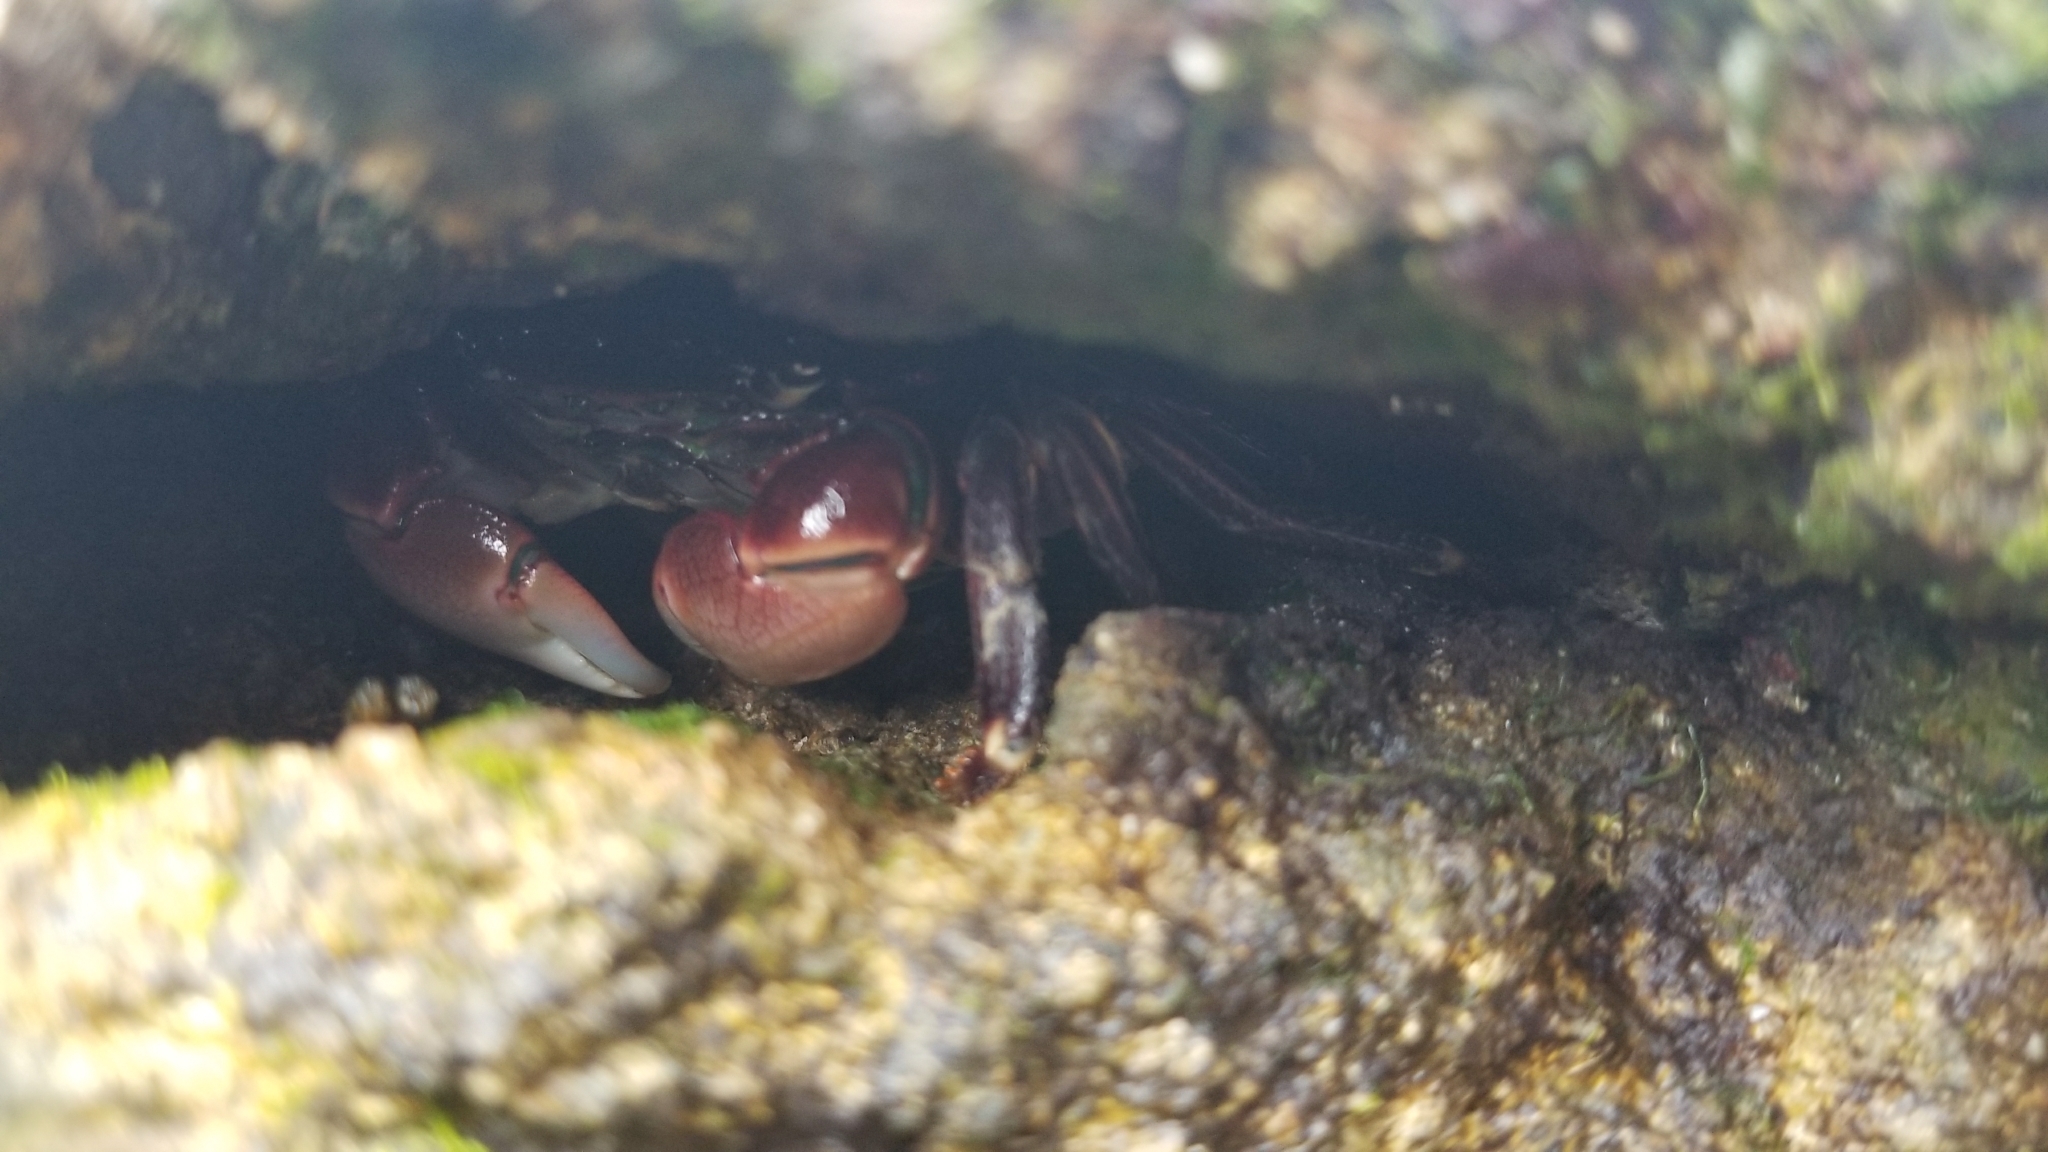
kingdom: Animalia
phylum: Arthropoda
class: Malacostraca
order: Decapoda
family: Grapsidae
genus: Pachygrapsus
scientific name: Pachygrapsus crassipes
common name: Striped shore crab
